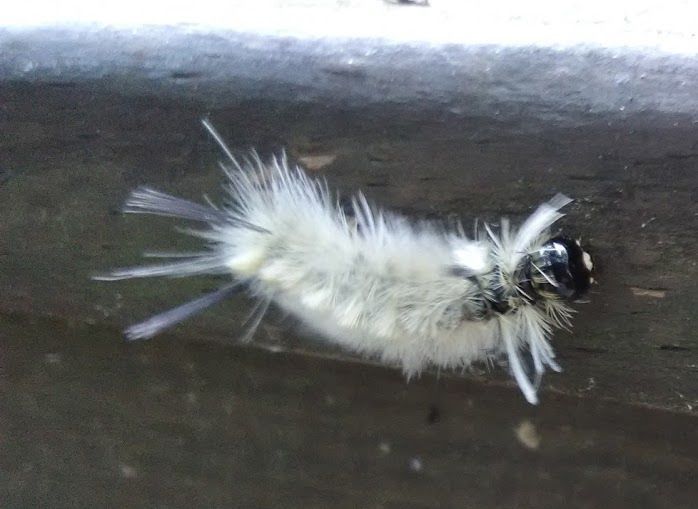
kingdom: Animalia
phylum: Arthropoda
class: Insecta
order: Lepidoptera
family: Erebidae
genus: Halysidota
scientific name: Halysidota tessellaris
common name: Banded tussock moth
